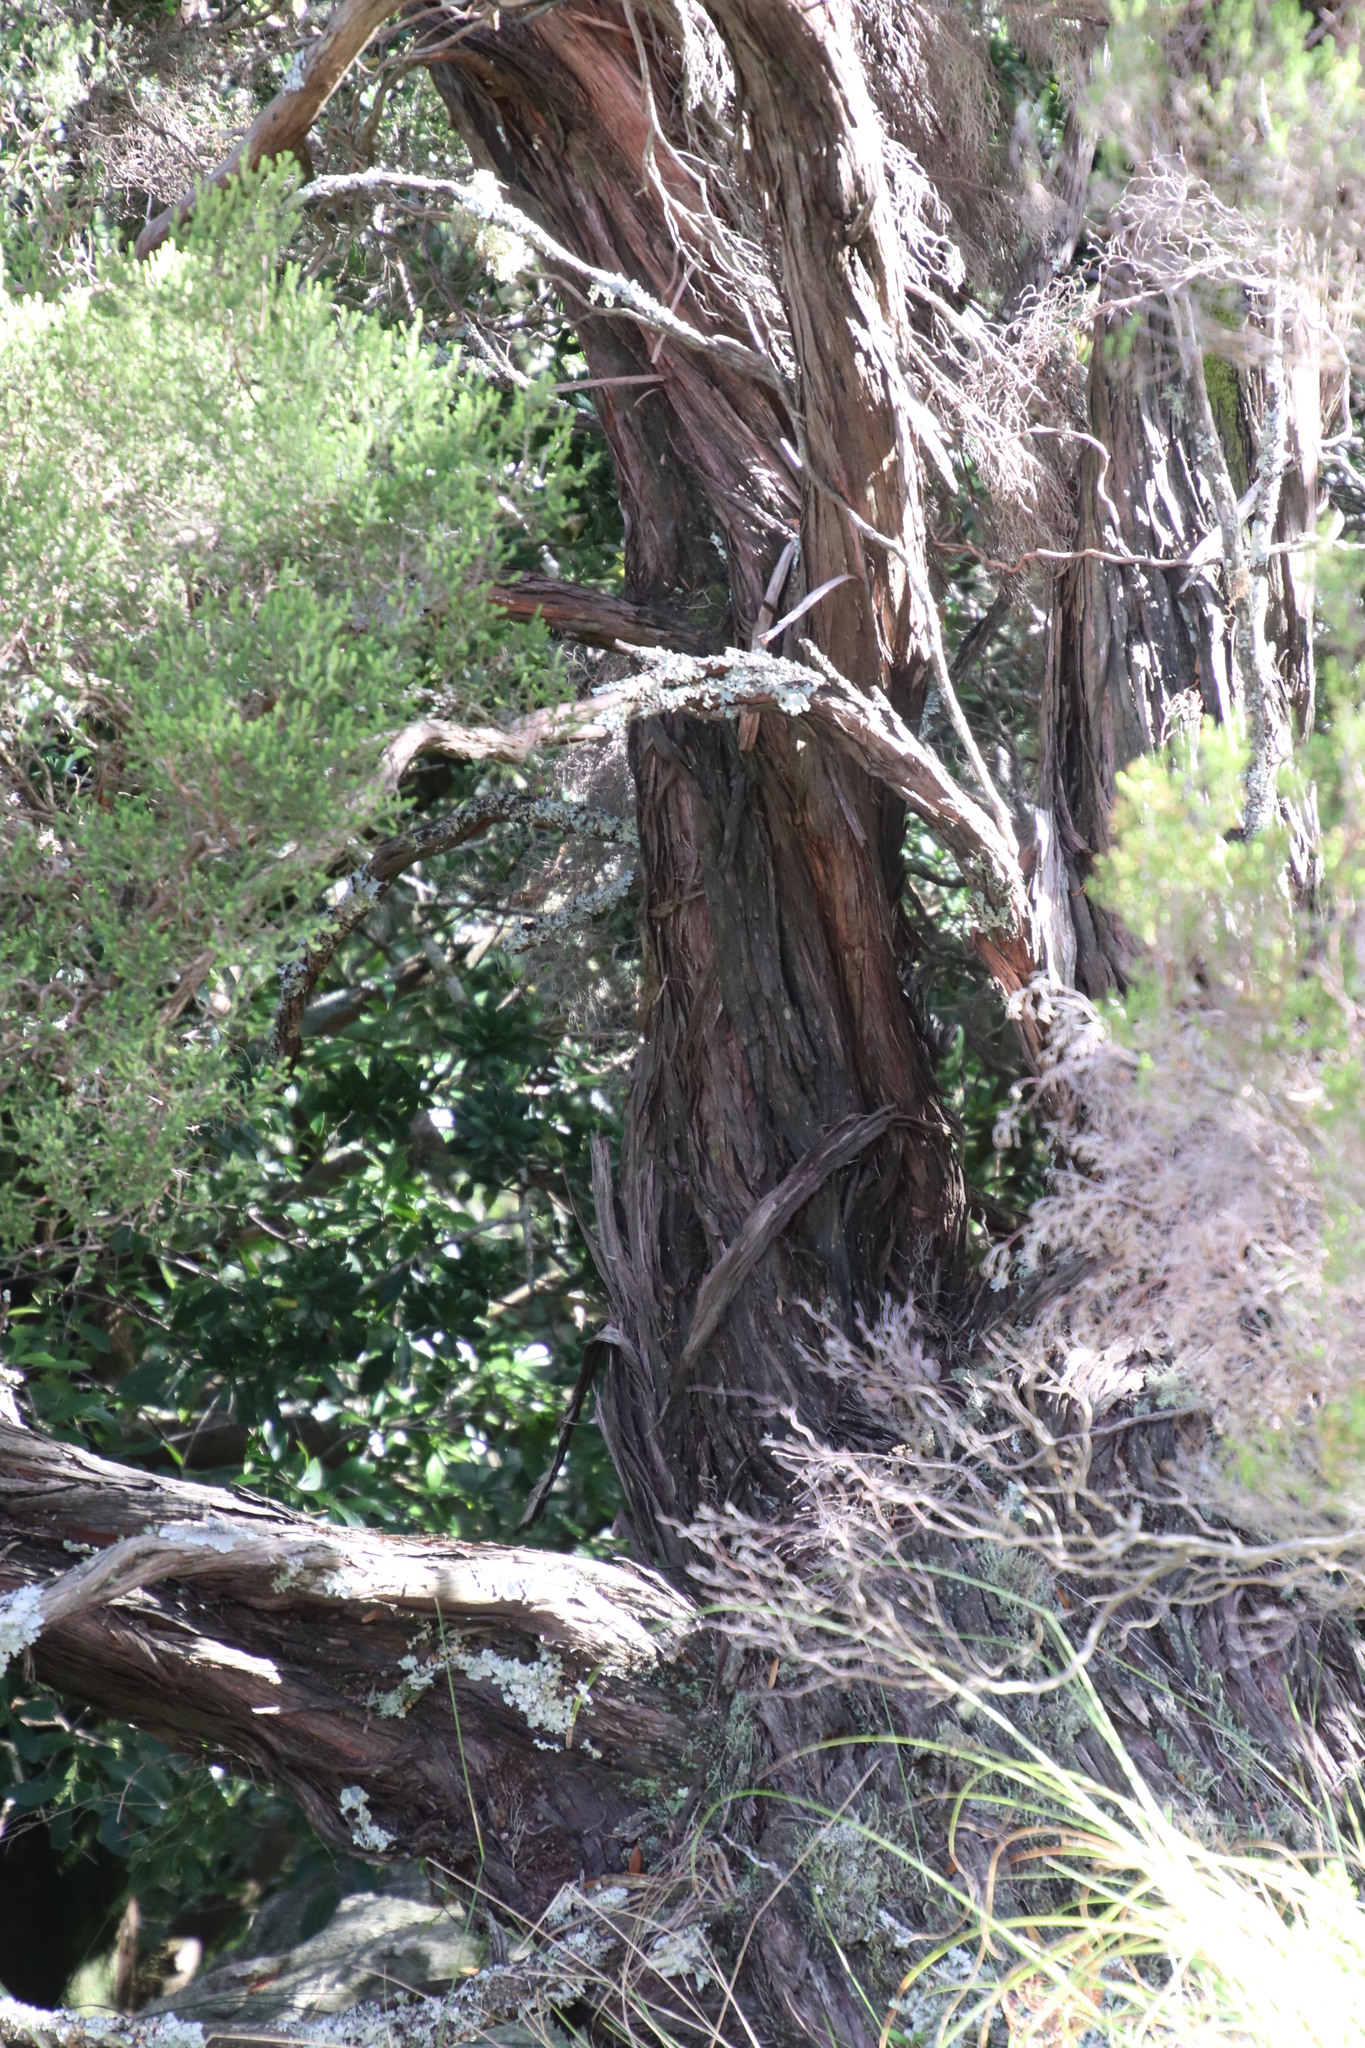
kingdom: Plantae
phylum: Tracheophyta
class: Magnoliopsida
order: Ericales
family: Ericaceae
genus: Erica
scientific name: Erica tristis
